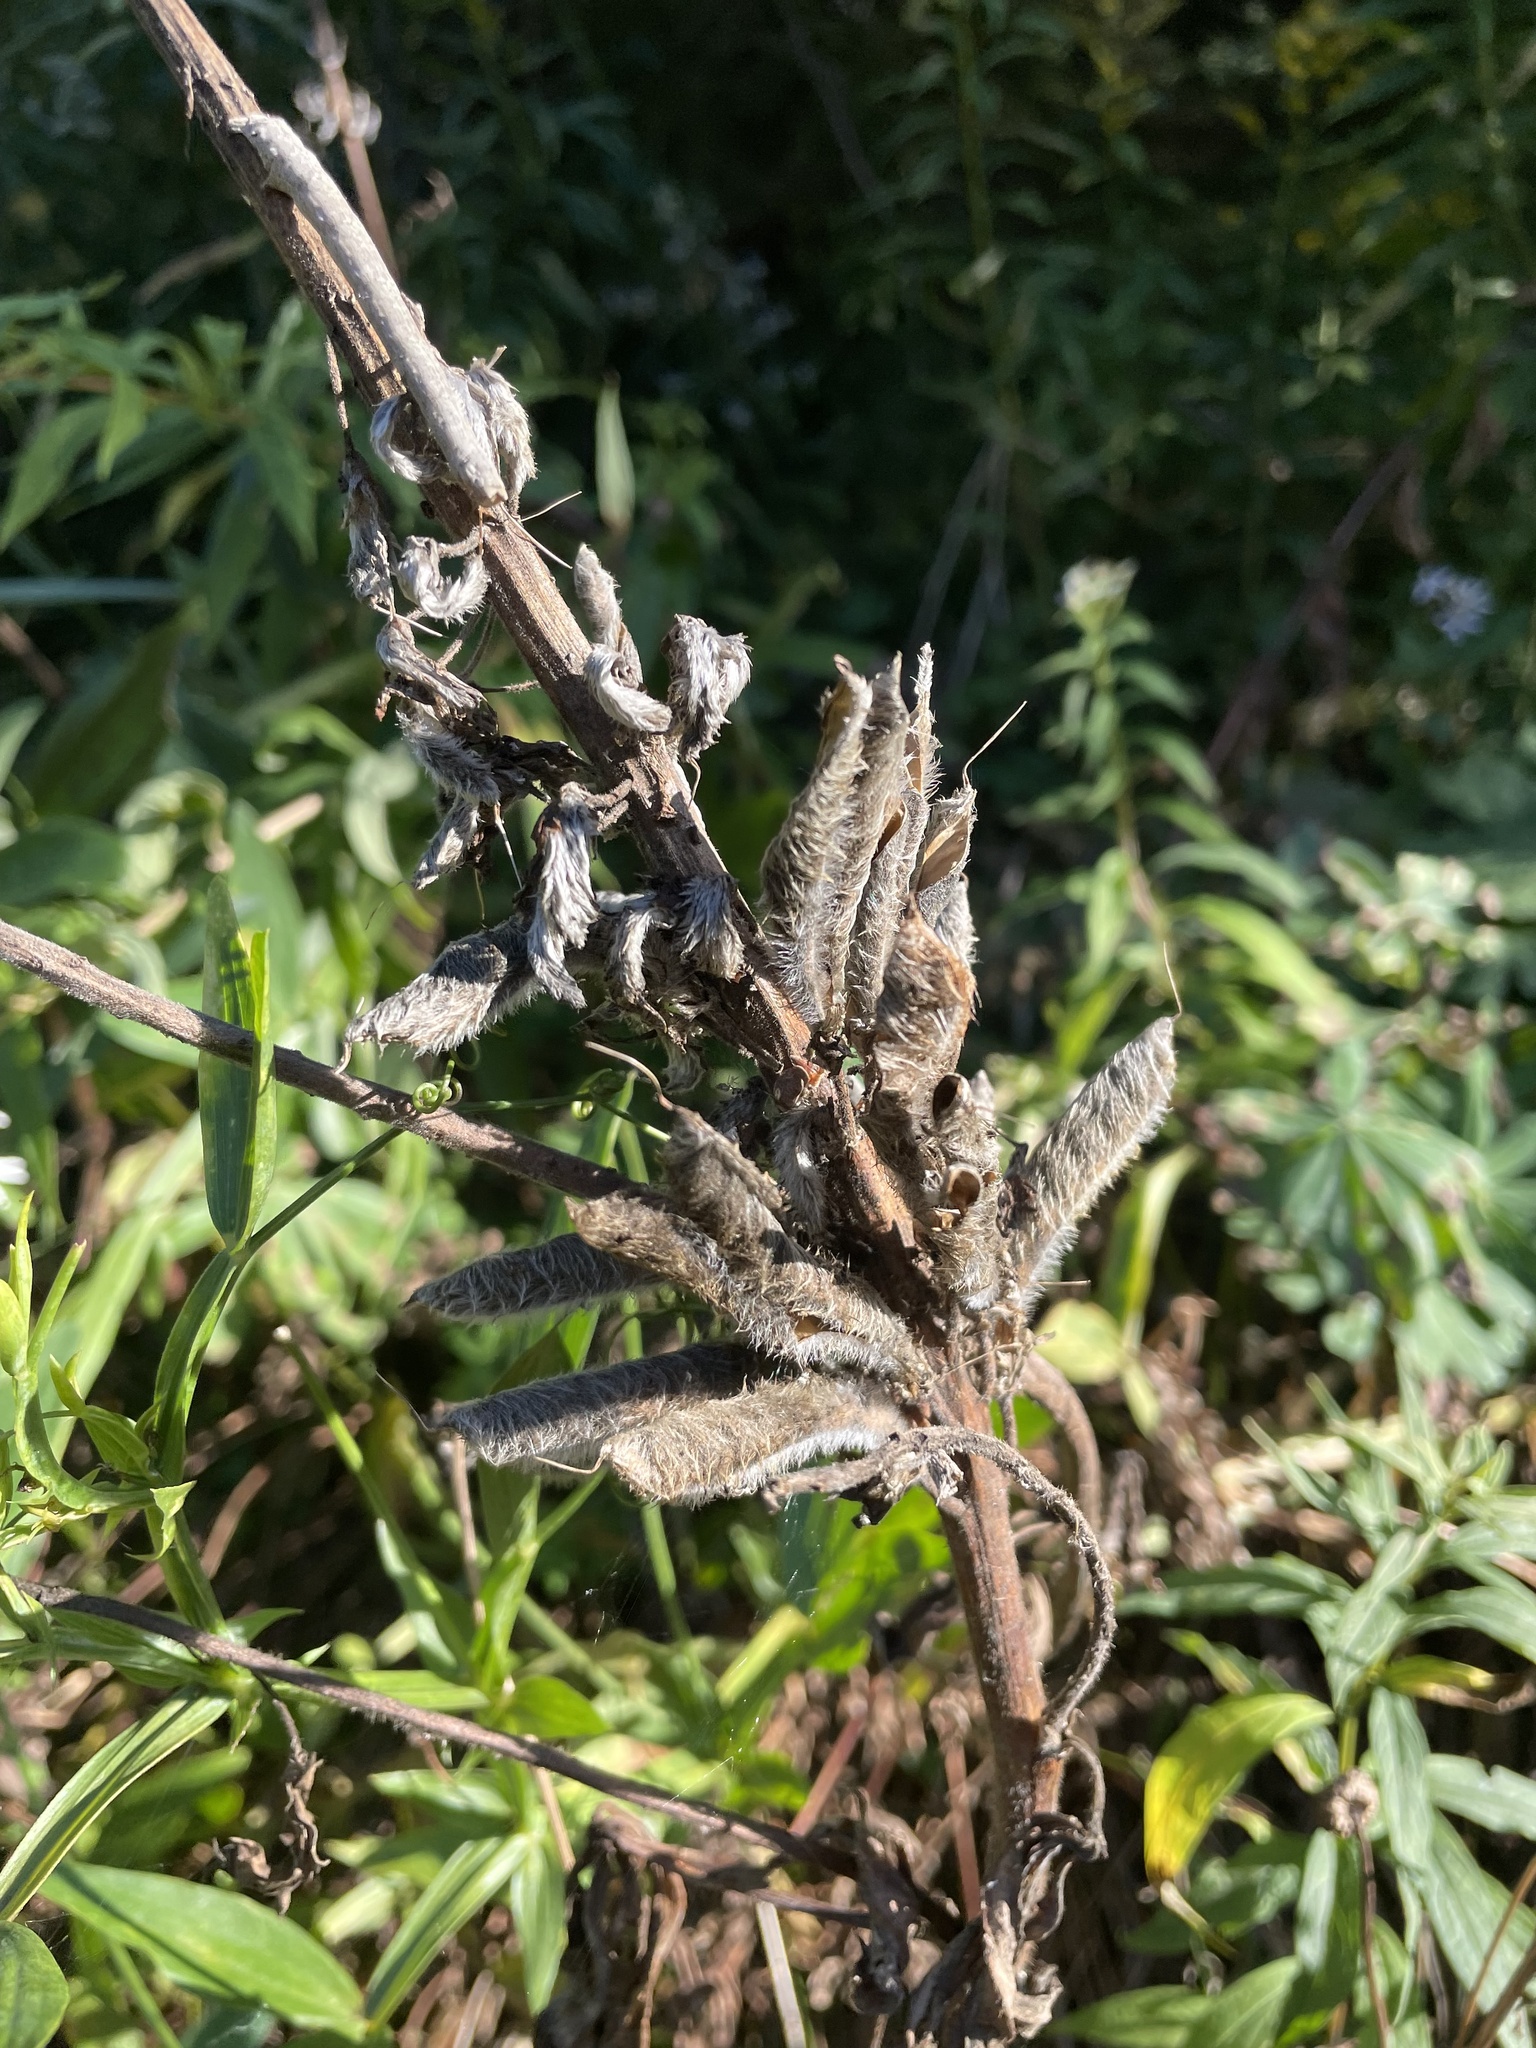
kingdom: Plantae
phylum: Tracheophyta
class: Magnoliopsida
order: Fabales
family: Fabaceae
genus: Lupinus
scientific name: Lupinus polyphyllus
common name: Garden lupin
